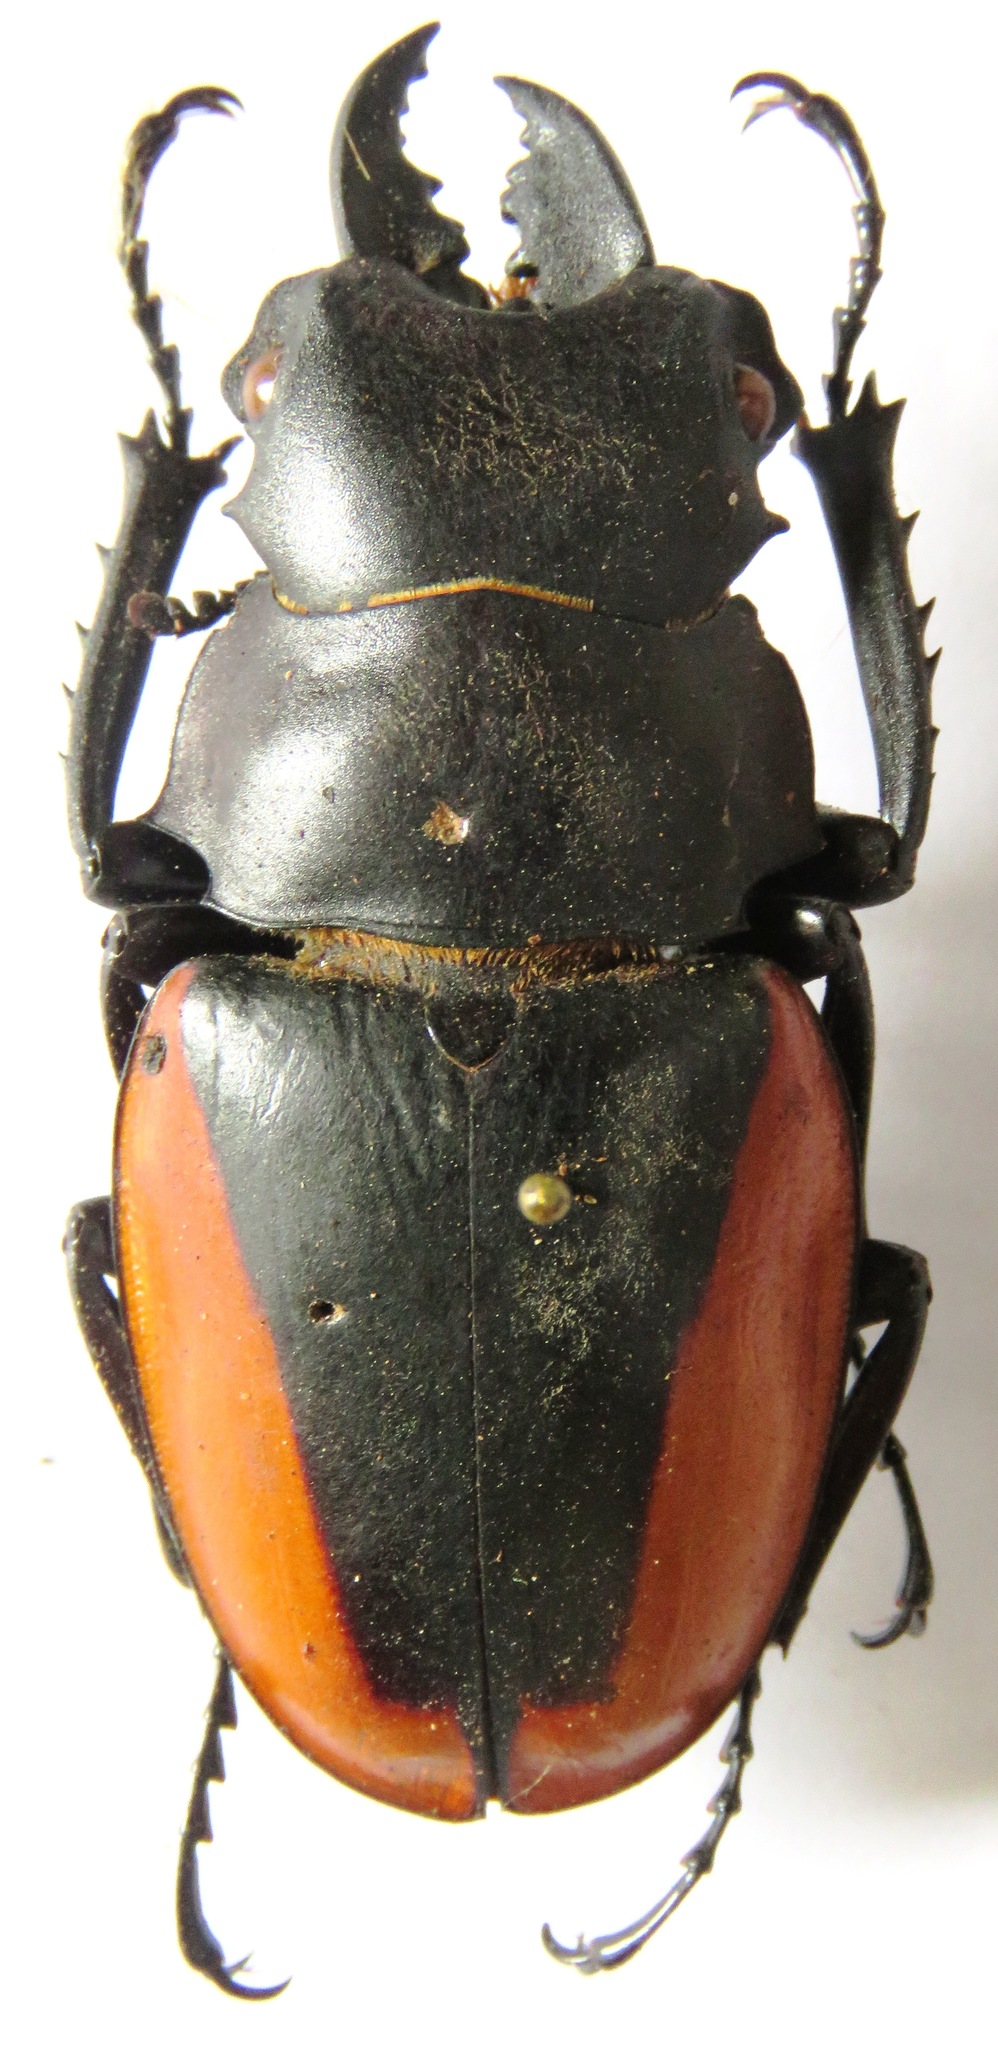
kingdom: Animalia
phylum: Arthropoda
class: Insecta
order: Coleoptera
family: Lucanidae
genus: Odontolabis
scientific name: Odontolabis cuvera
